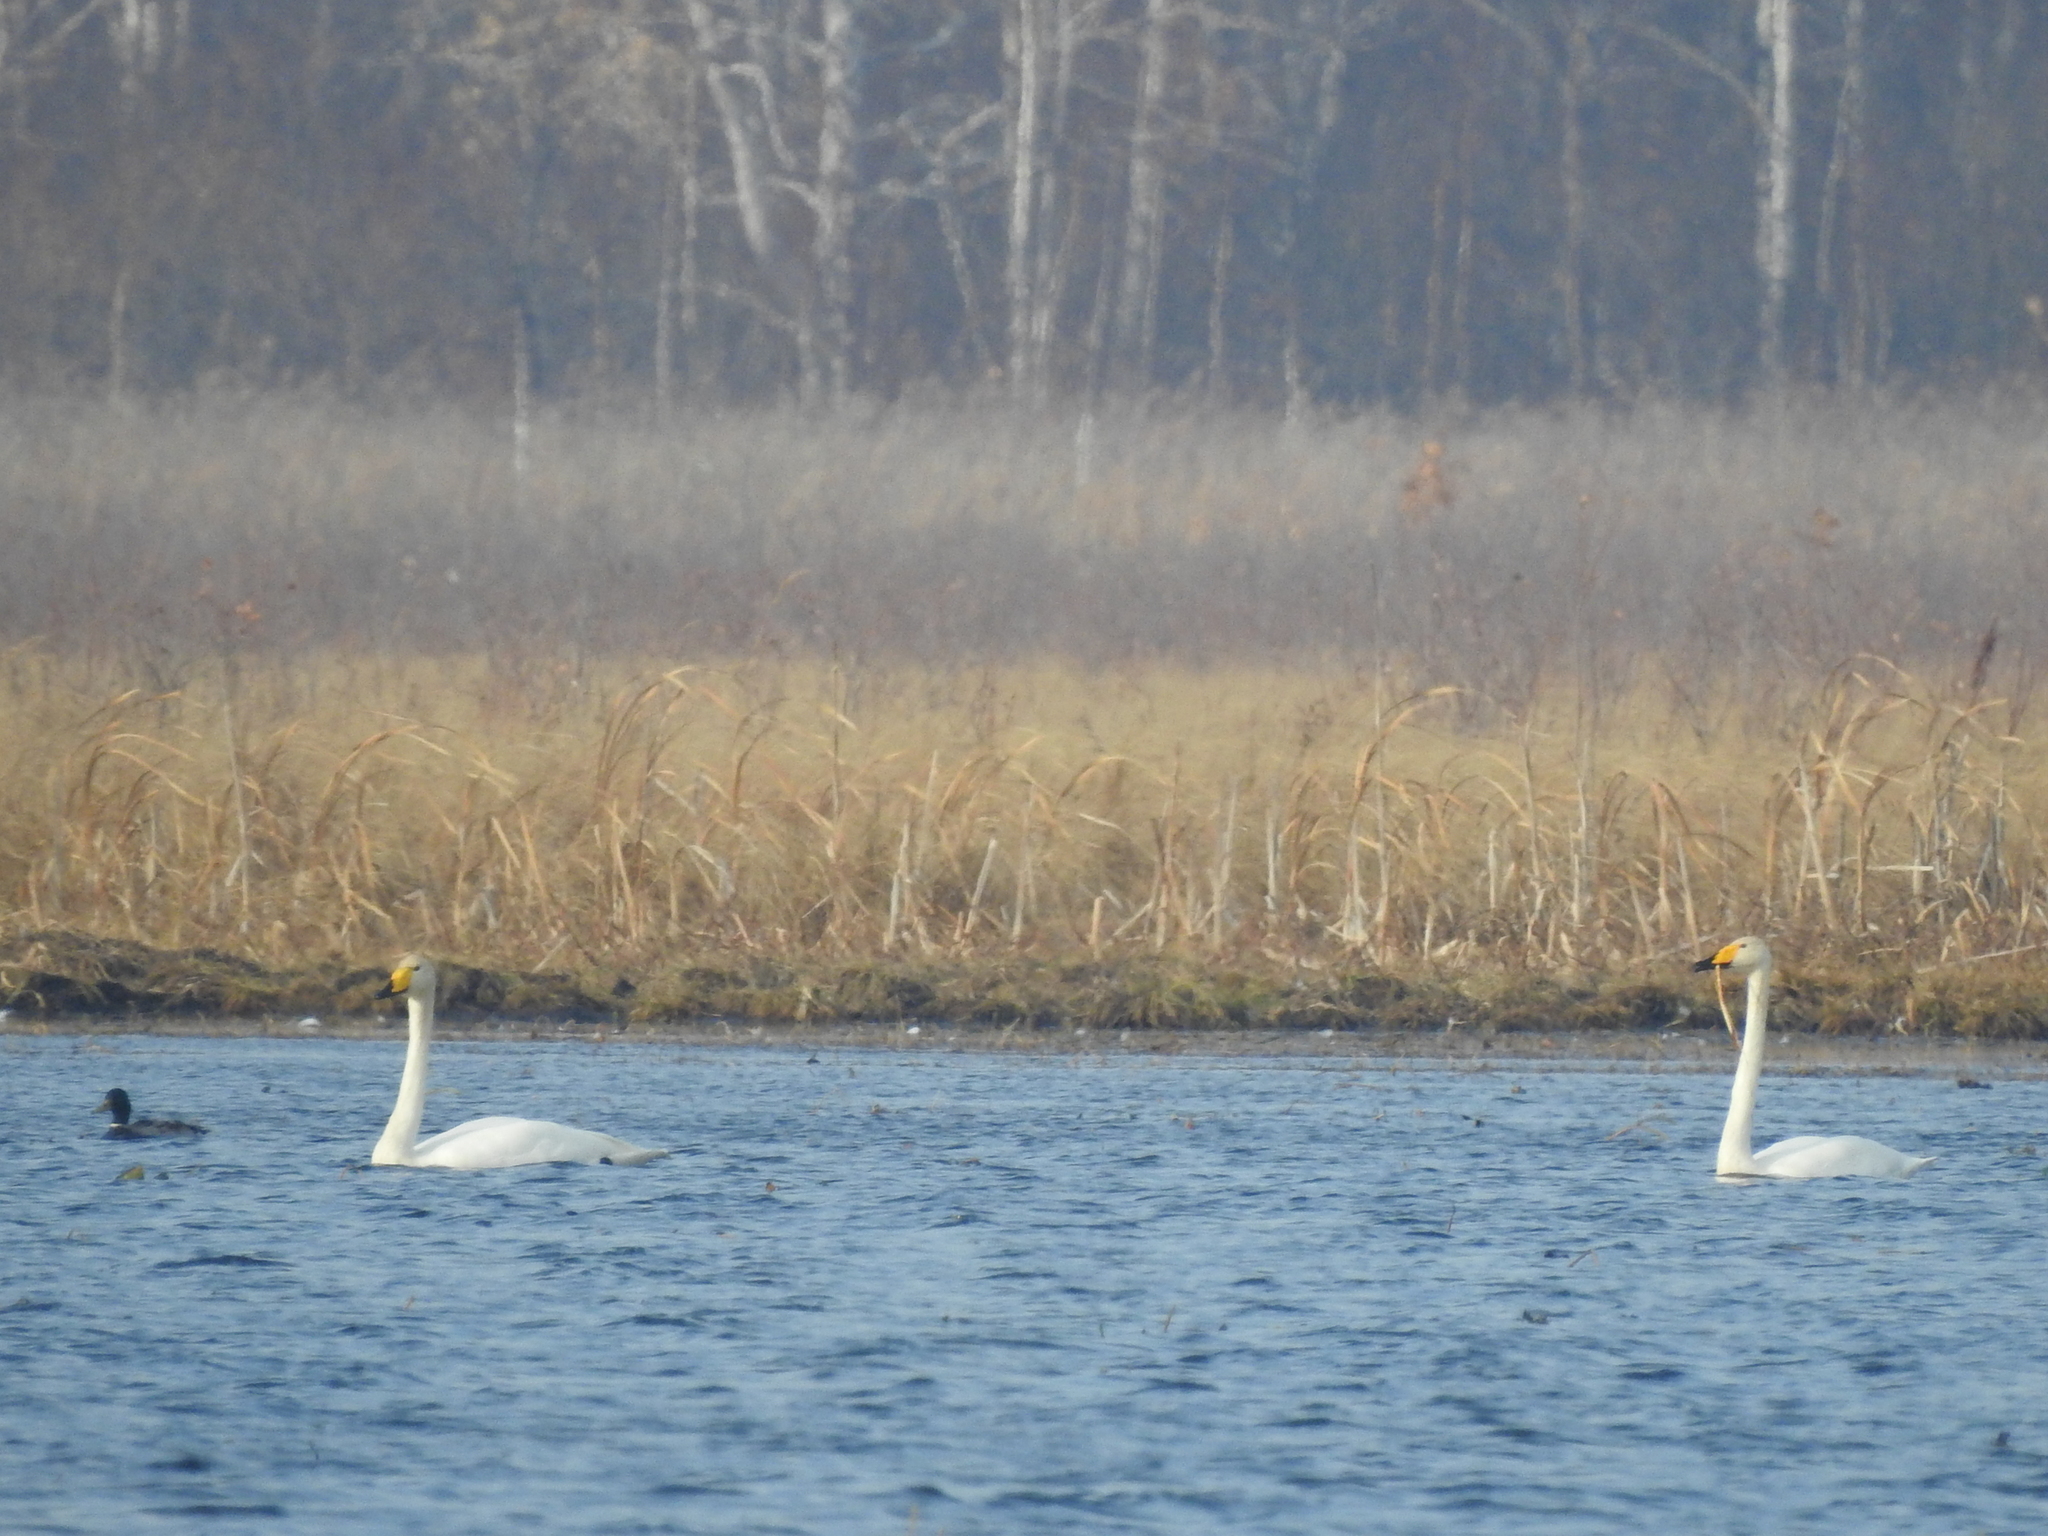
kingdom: Animalia
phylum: Chordata
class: Aves
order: Anseriformes
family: Anatidae
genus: Cygnus
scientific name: Cygnus cygnus
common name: Whooper swan
